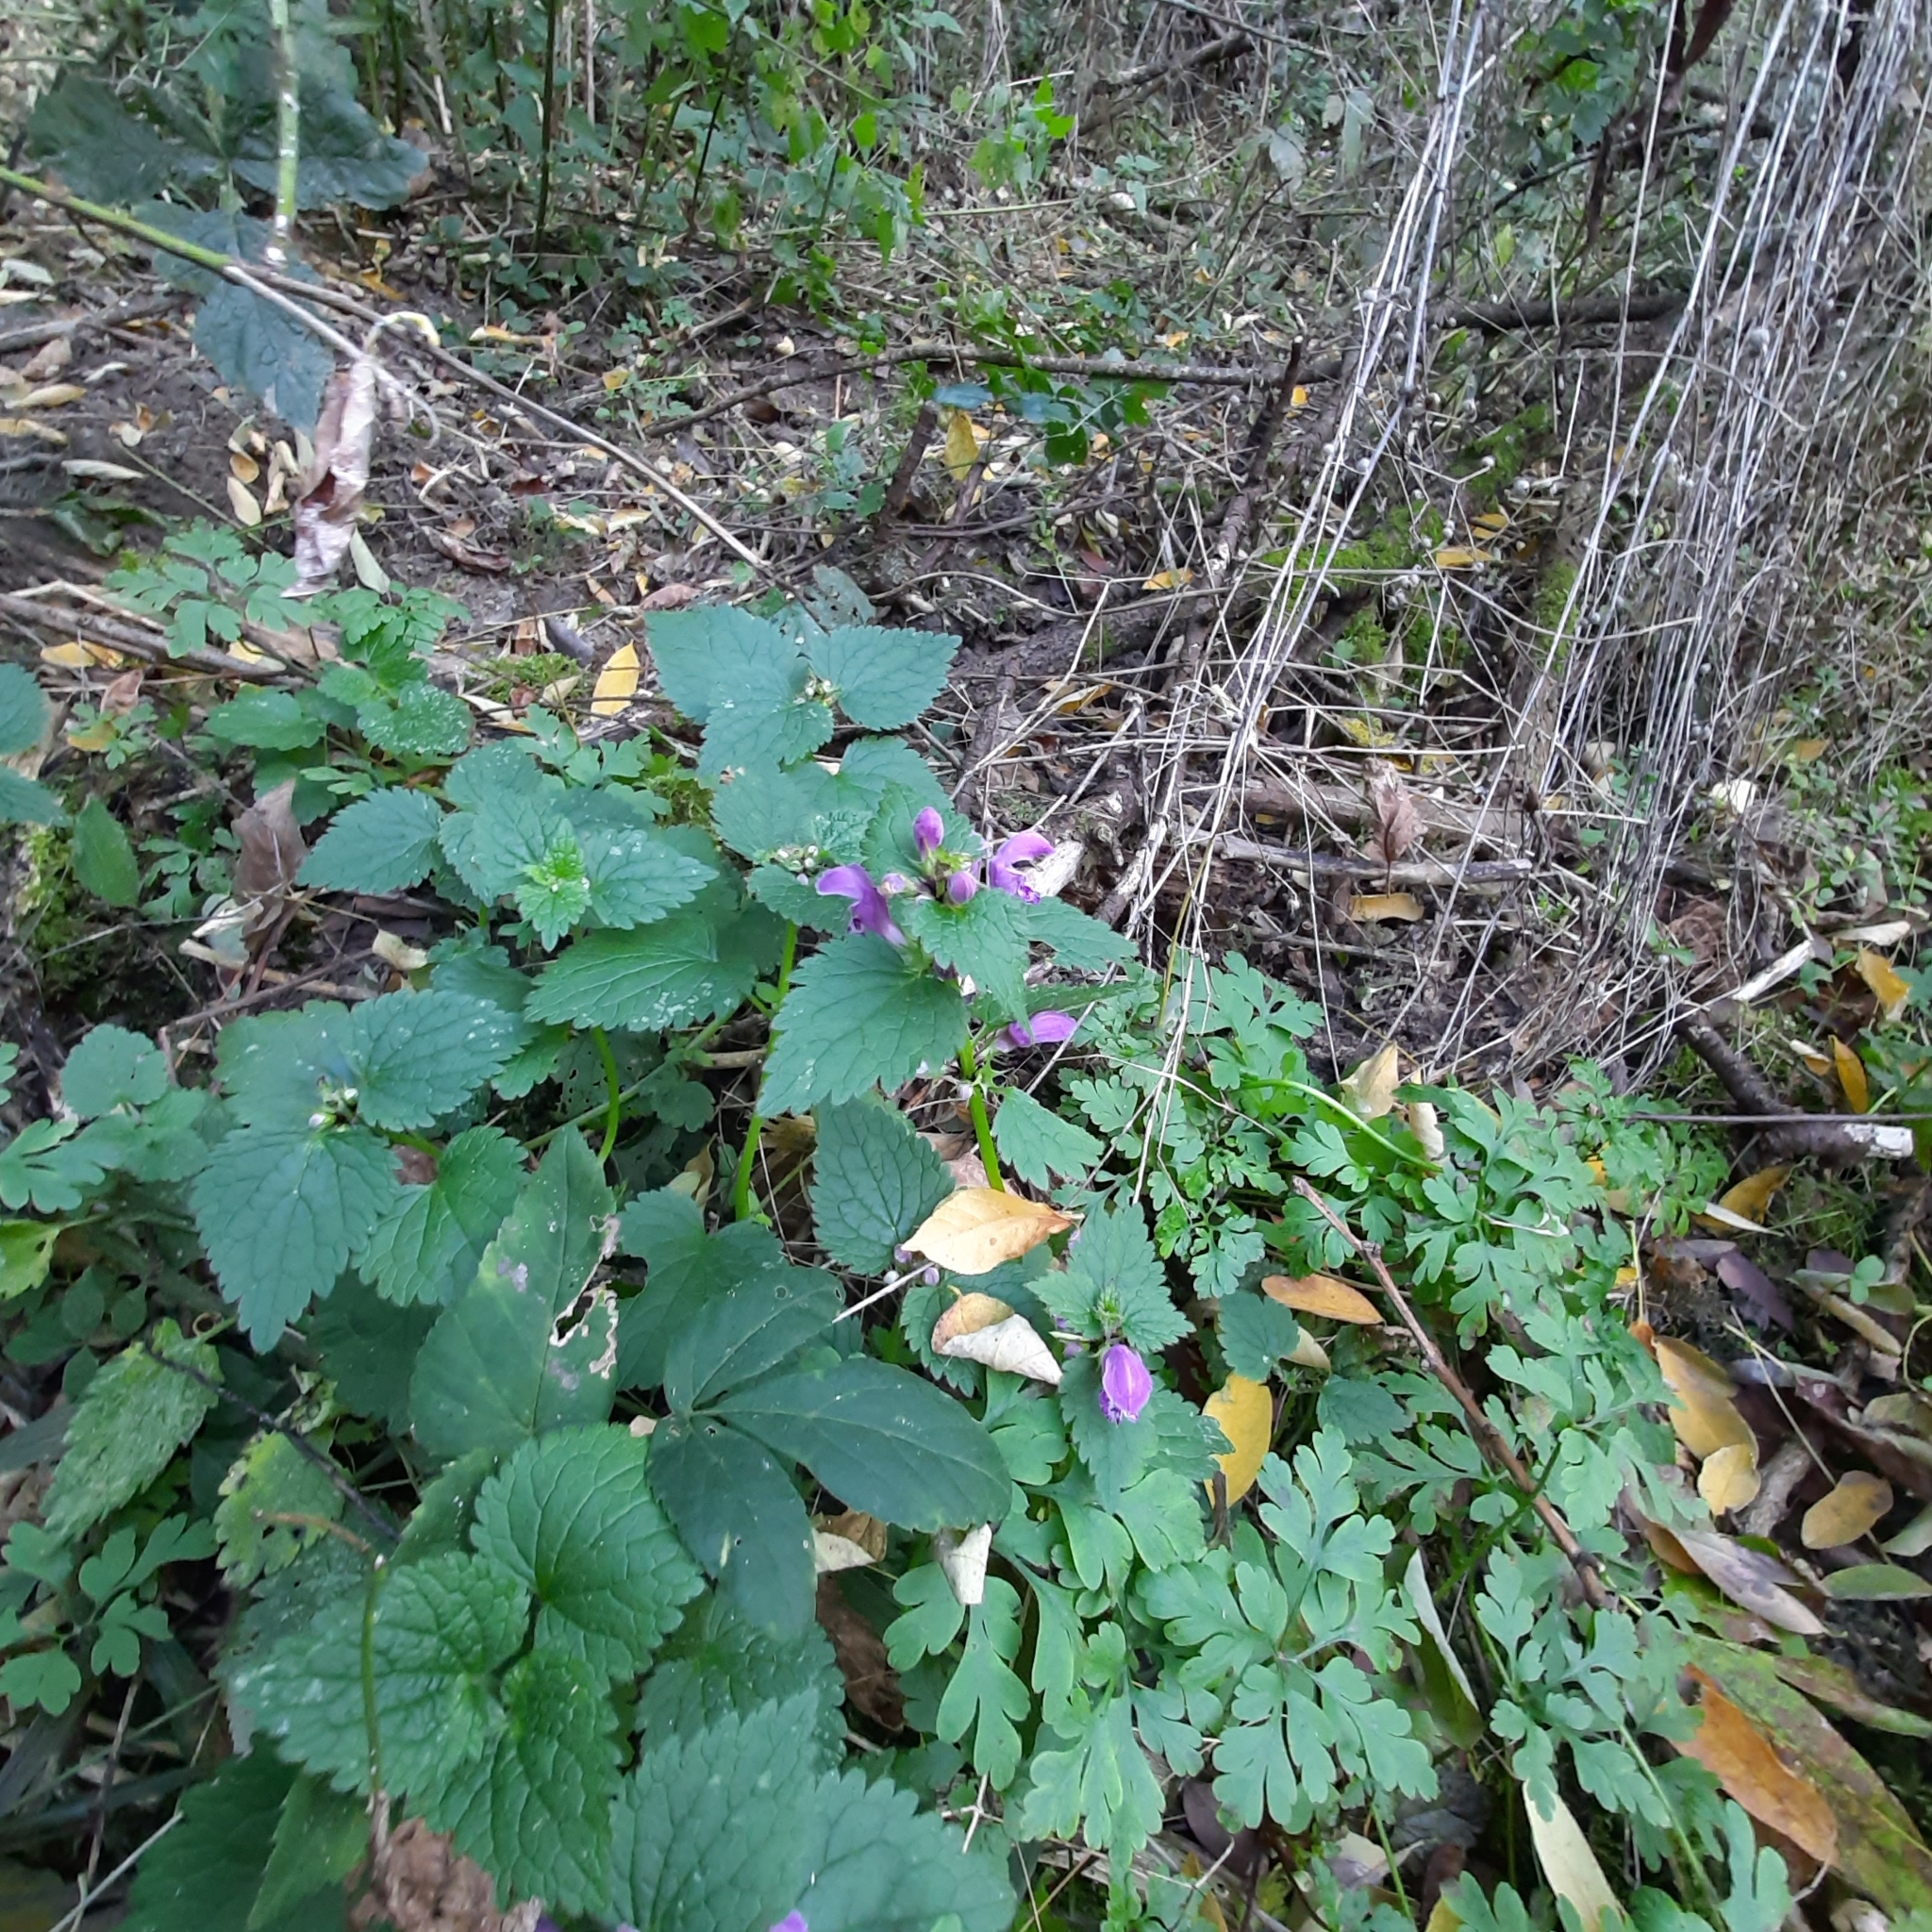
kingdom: Plantae
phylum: Tracheophyta
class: Magnoliopsida
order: Lamiales
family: Lamiaceae
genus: Lamium
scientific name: Lamium maculatum
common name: Spotted dead-nettle
